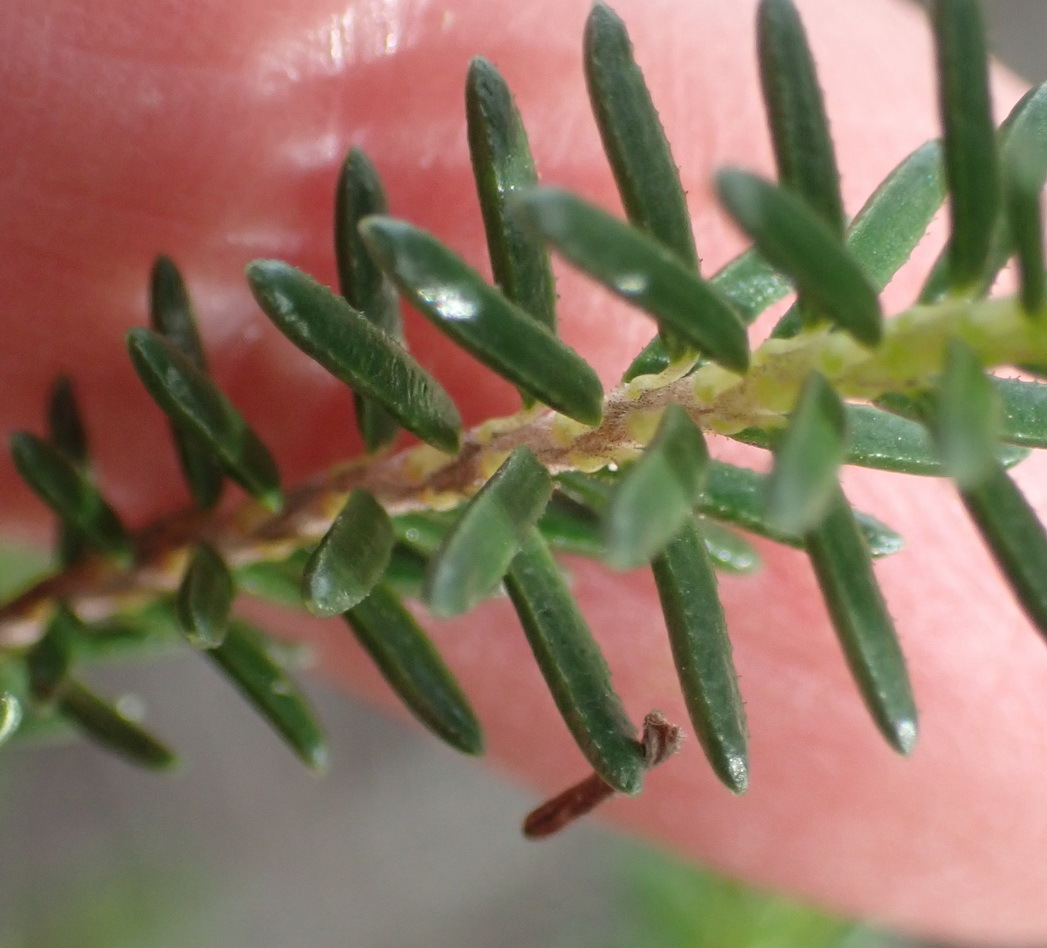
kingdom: Plantae
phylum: Tracheophyta
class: Magnoliopsida
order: Ericales
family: Ericaceae
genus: Erica
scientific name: Erica discolor
